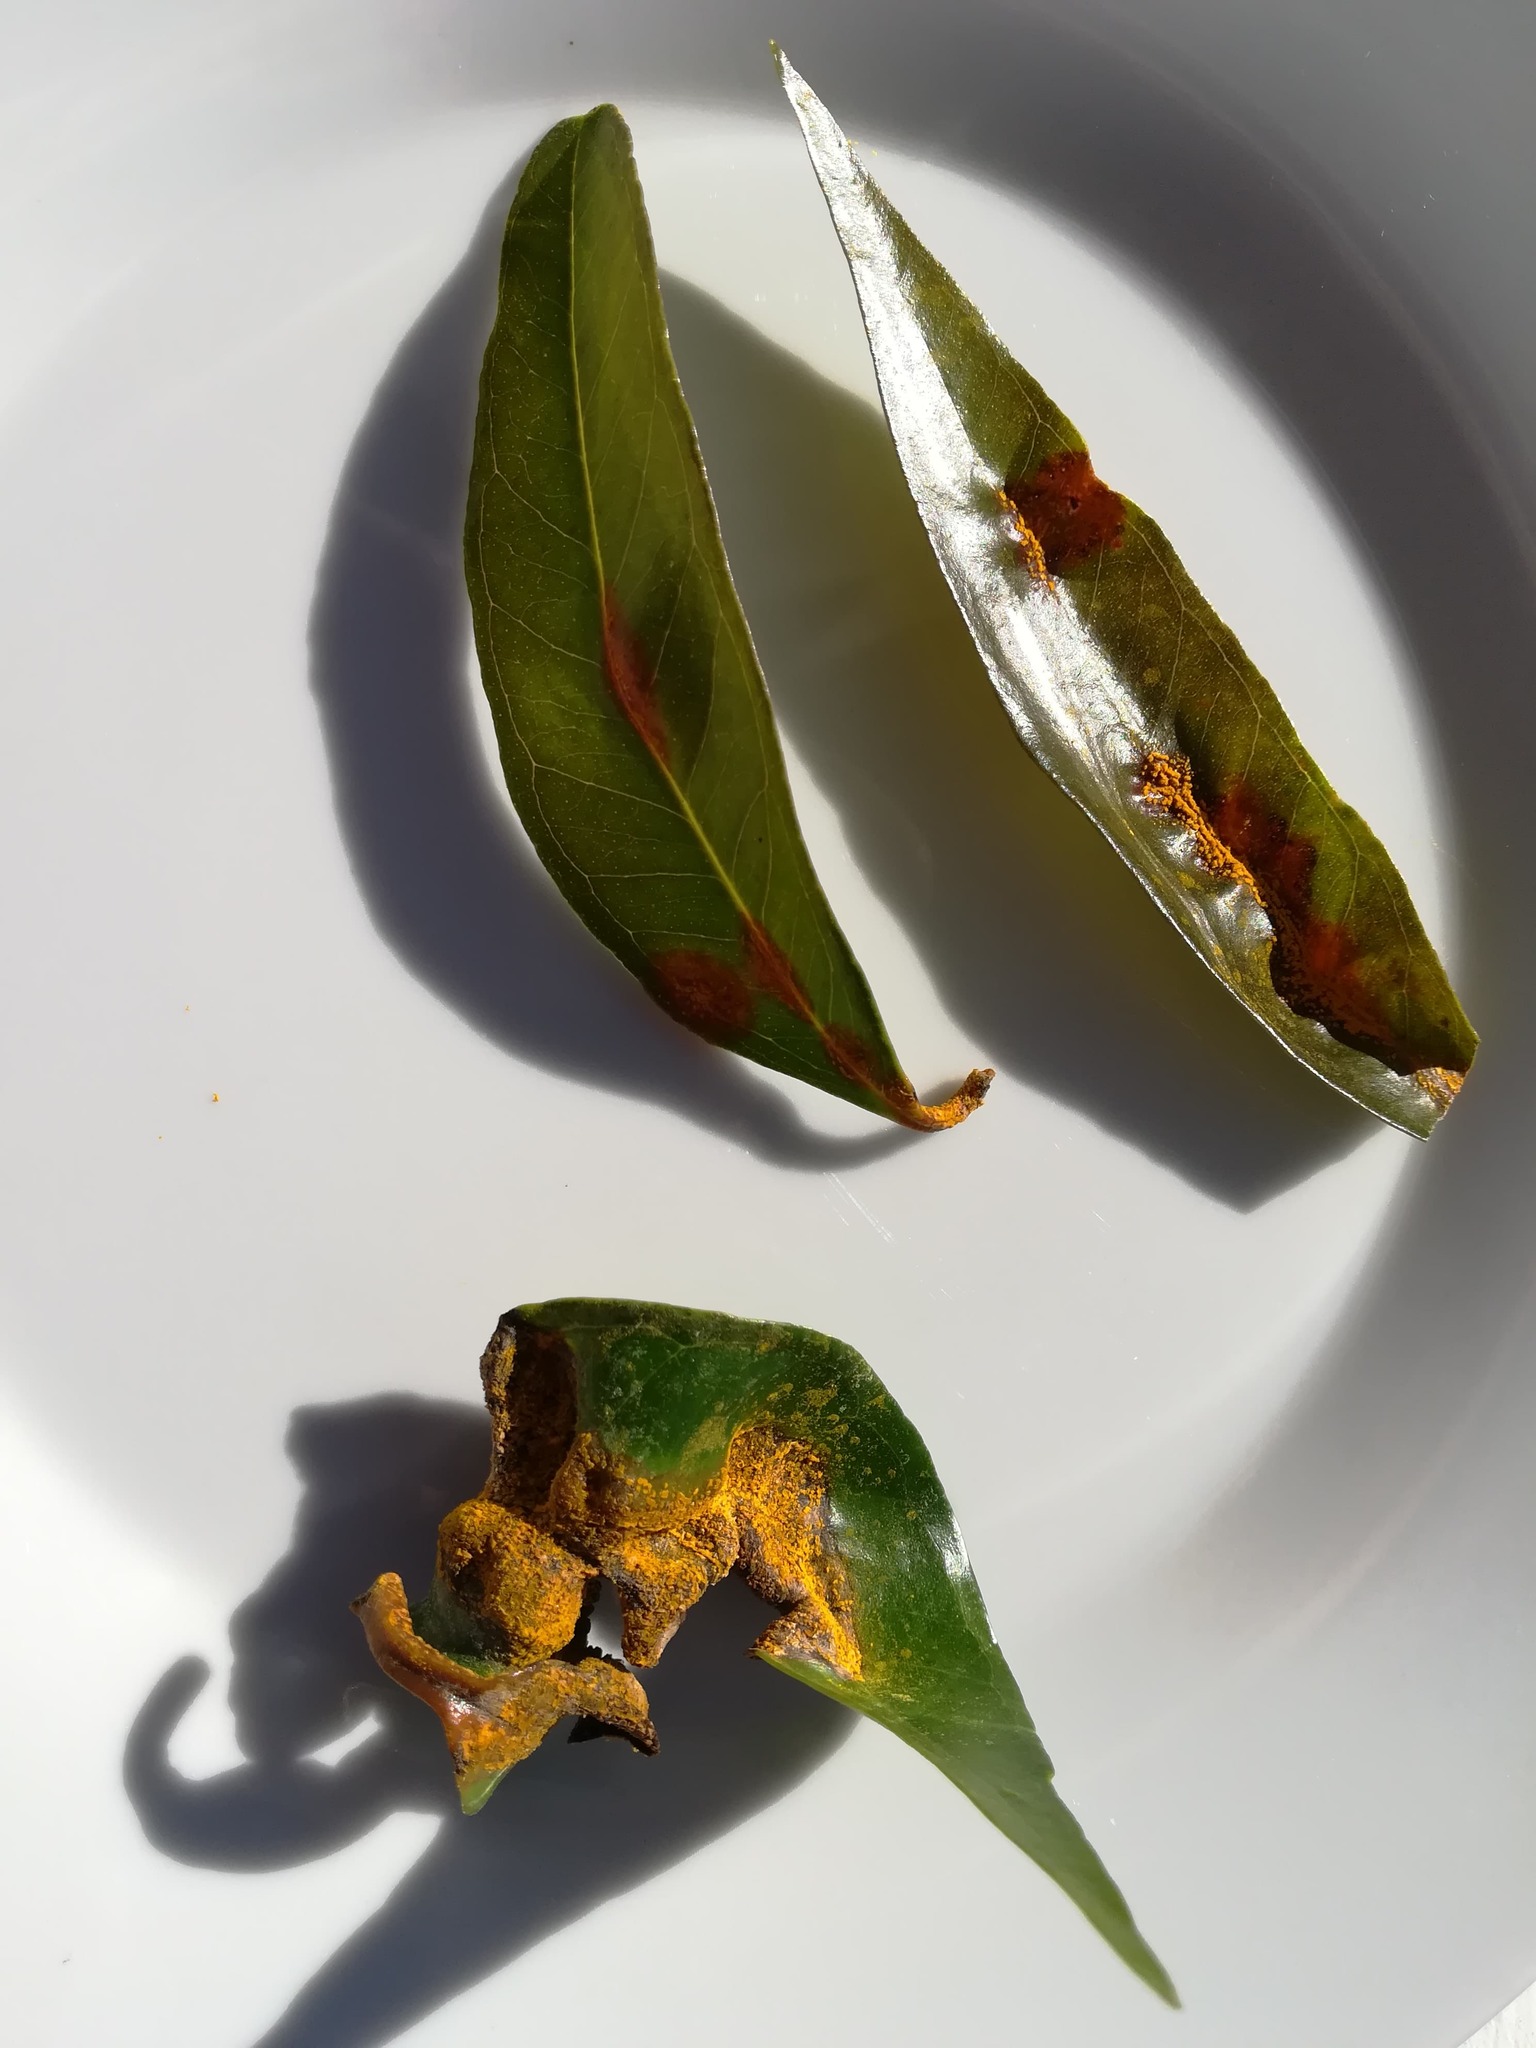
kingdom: Fungi
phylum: Basidiomycota
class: Pucciniomycetes
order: Pucciniales
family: Sphaerophragmiaceae
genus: Austropuccinia
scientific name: Austropuccinia psidii
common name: Myrtle rust
